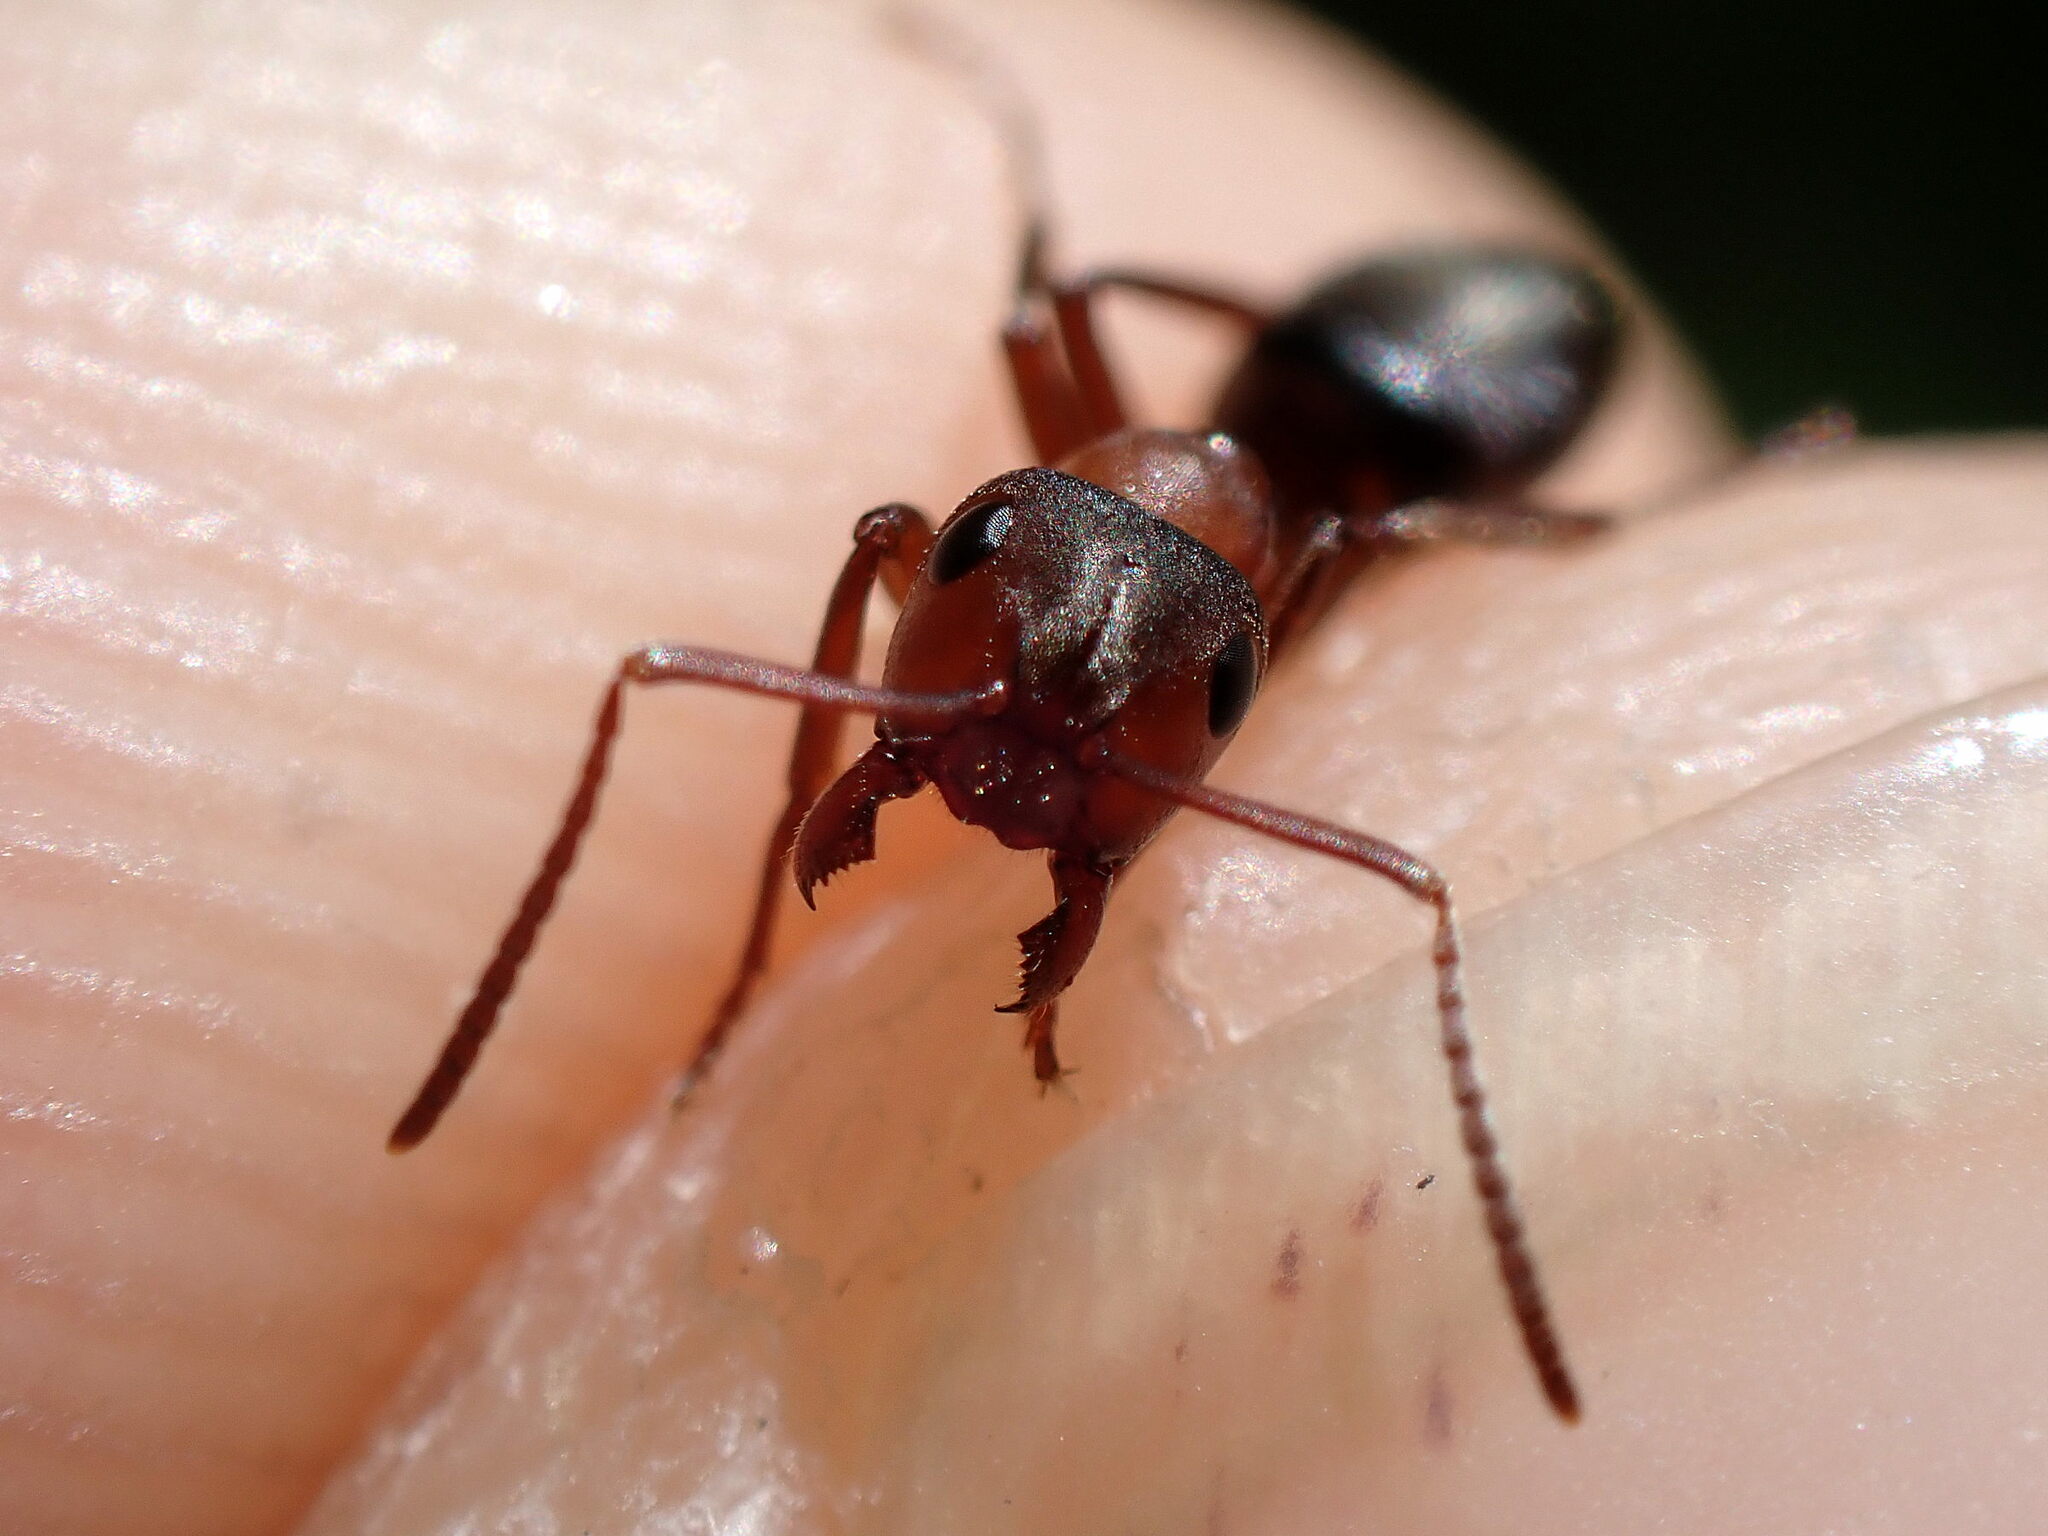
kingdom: Animalia
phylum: Arthropoda
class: Insecta
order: Hymenoptera
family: Formicidae
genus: Formica
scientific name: Formica sanguinea
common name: Blood-red ant
